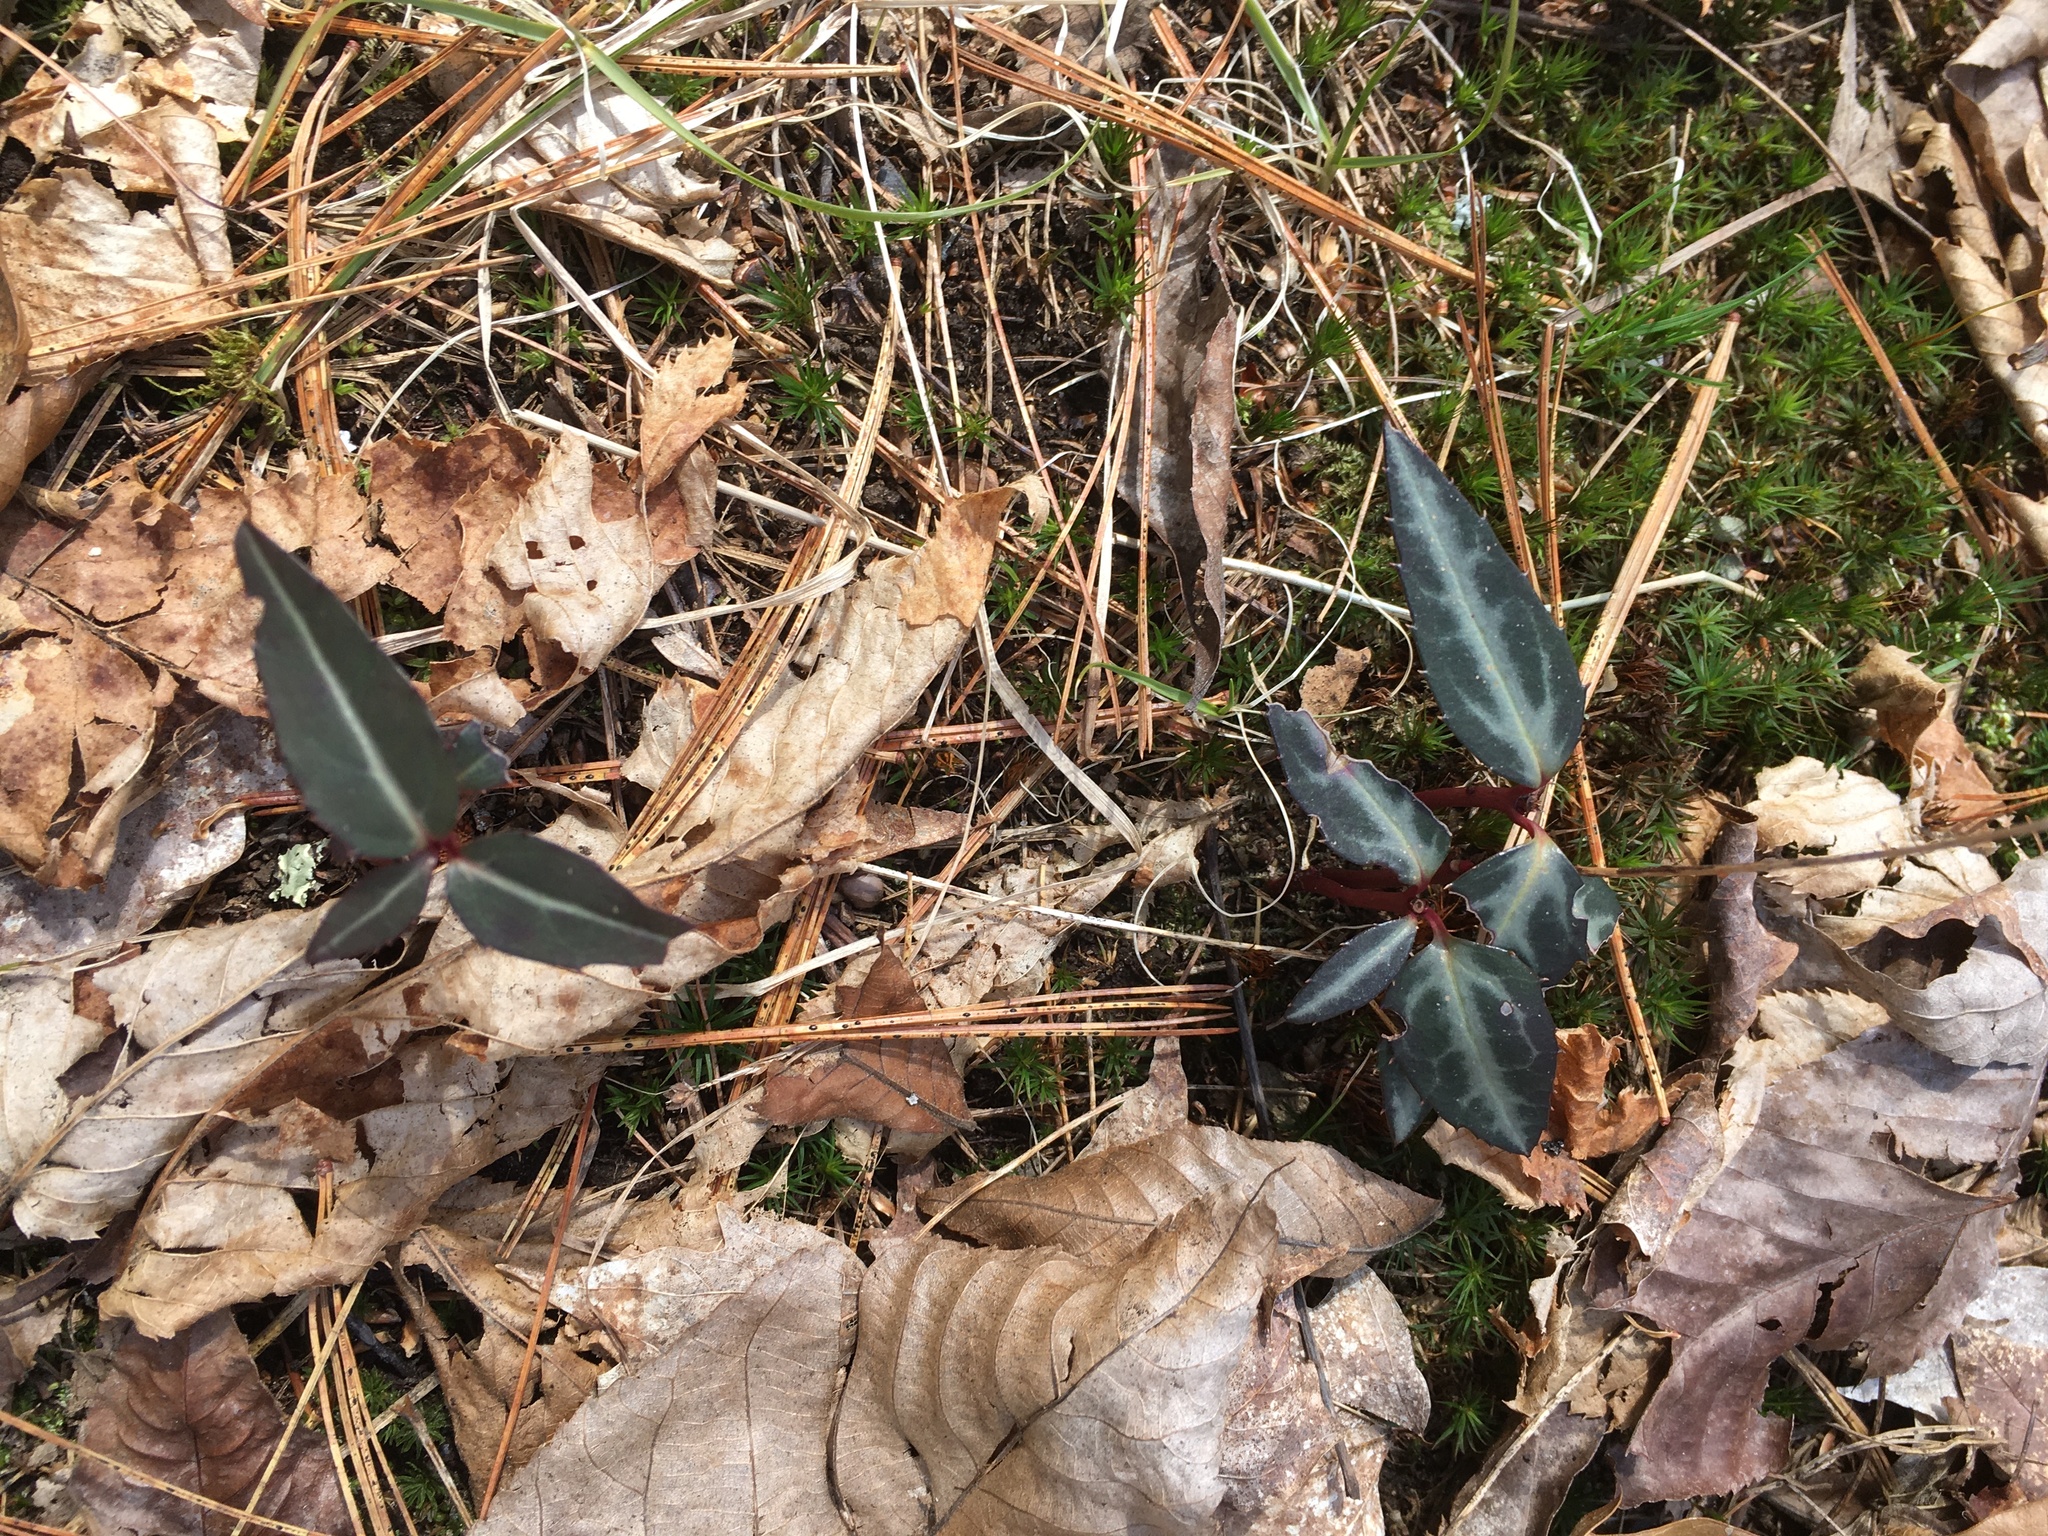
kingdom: Plantae
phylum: Tracheophyta
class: Magnoliopsida
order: Ericales
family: Ericaceae
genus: Chimaphila
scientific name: Chimaphila maculata
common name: Spotted pipsissewa
